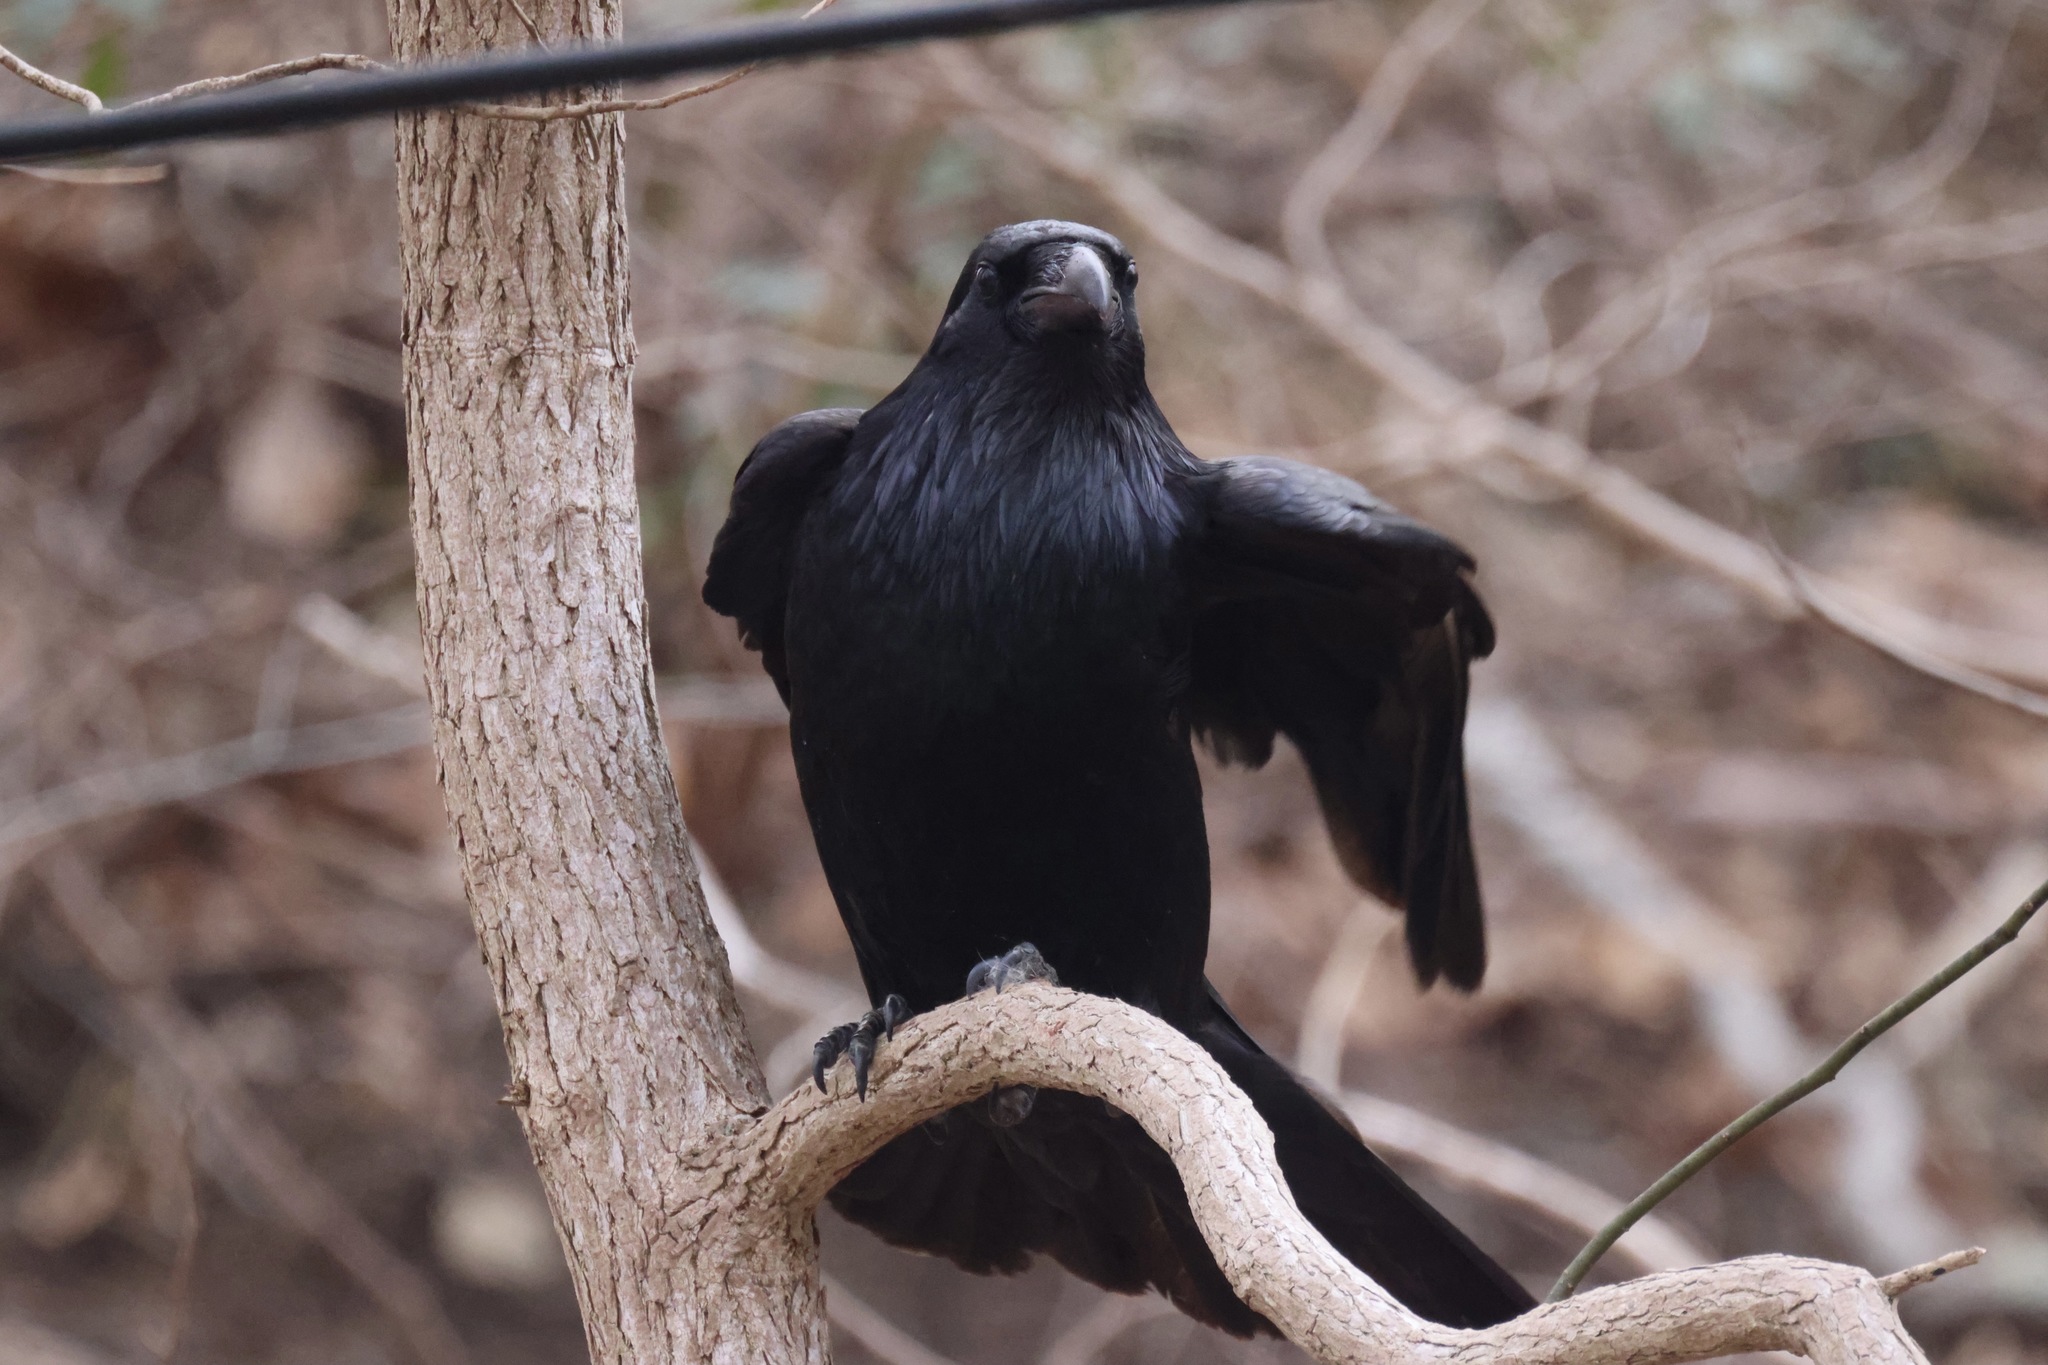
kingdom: Animalia
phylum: Chordata
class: Aves
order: Passeriformes
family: Corvidae
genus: Corvus
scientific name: Corvus corax
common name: Common raven
